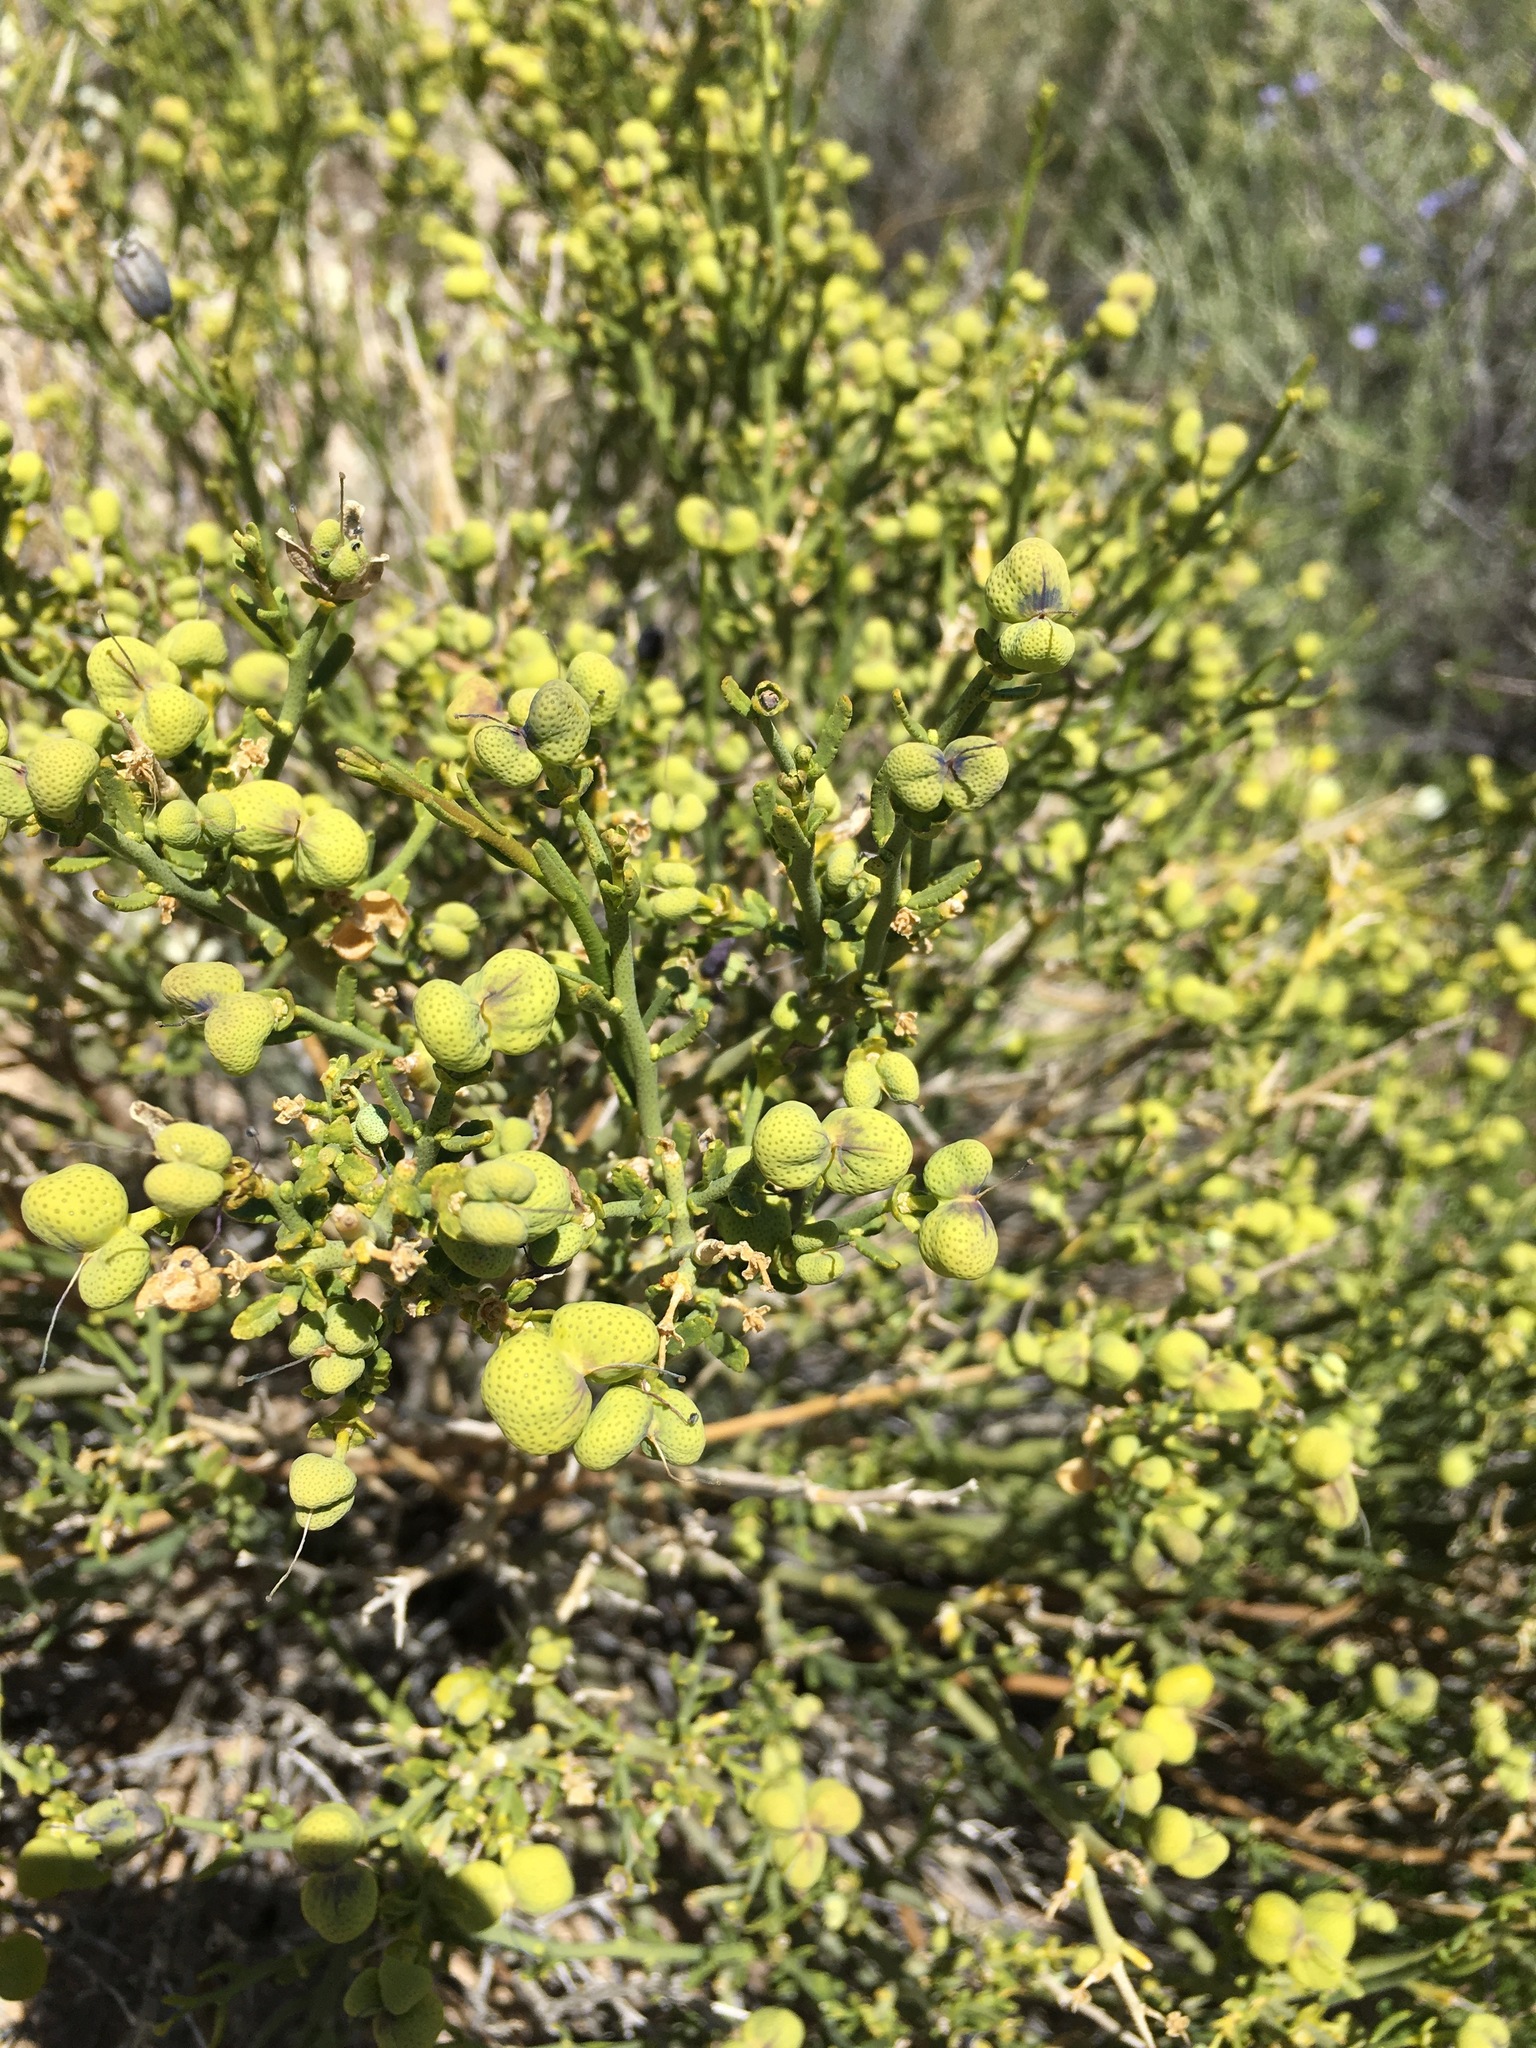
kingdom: Plantae
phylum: Tracheophyta
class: Magnoliopsida
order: Sapindales
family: Rutaceae
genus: Thamnosma
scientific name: Thamnosma montana
